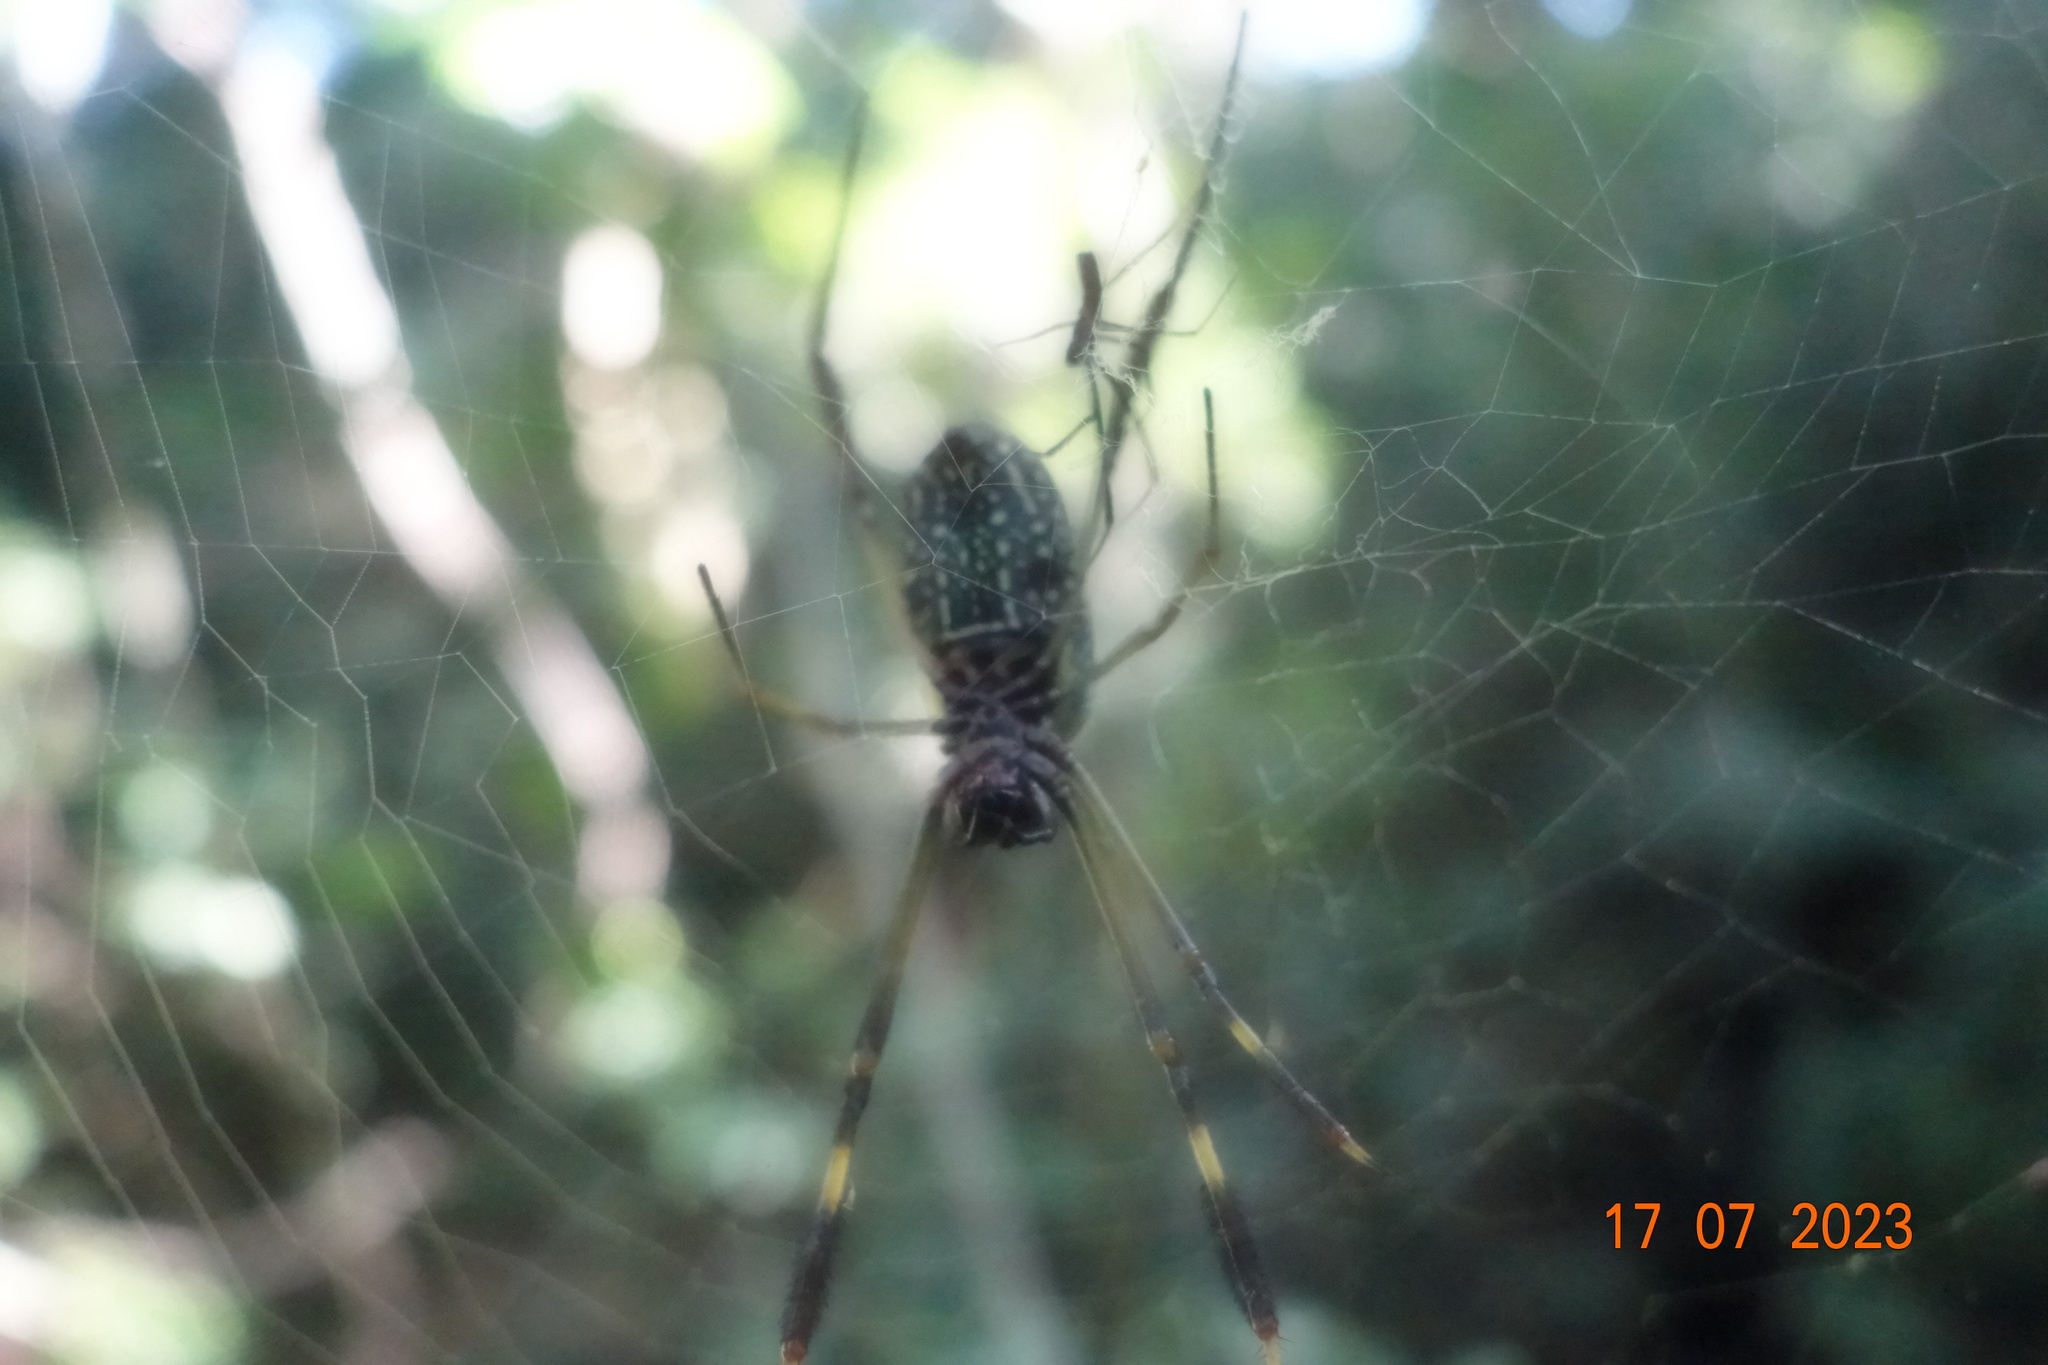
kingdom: Animalia
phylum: Arthropoda
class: Arachnida
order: Araneae
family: Araneidae
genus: Trichonephila
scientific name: Trichonephila clavipes
